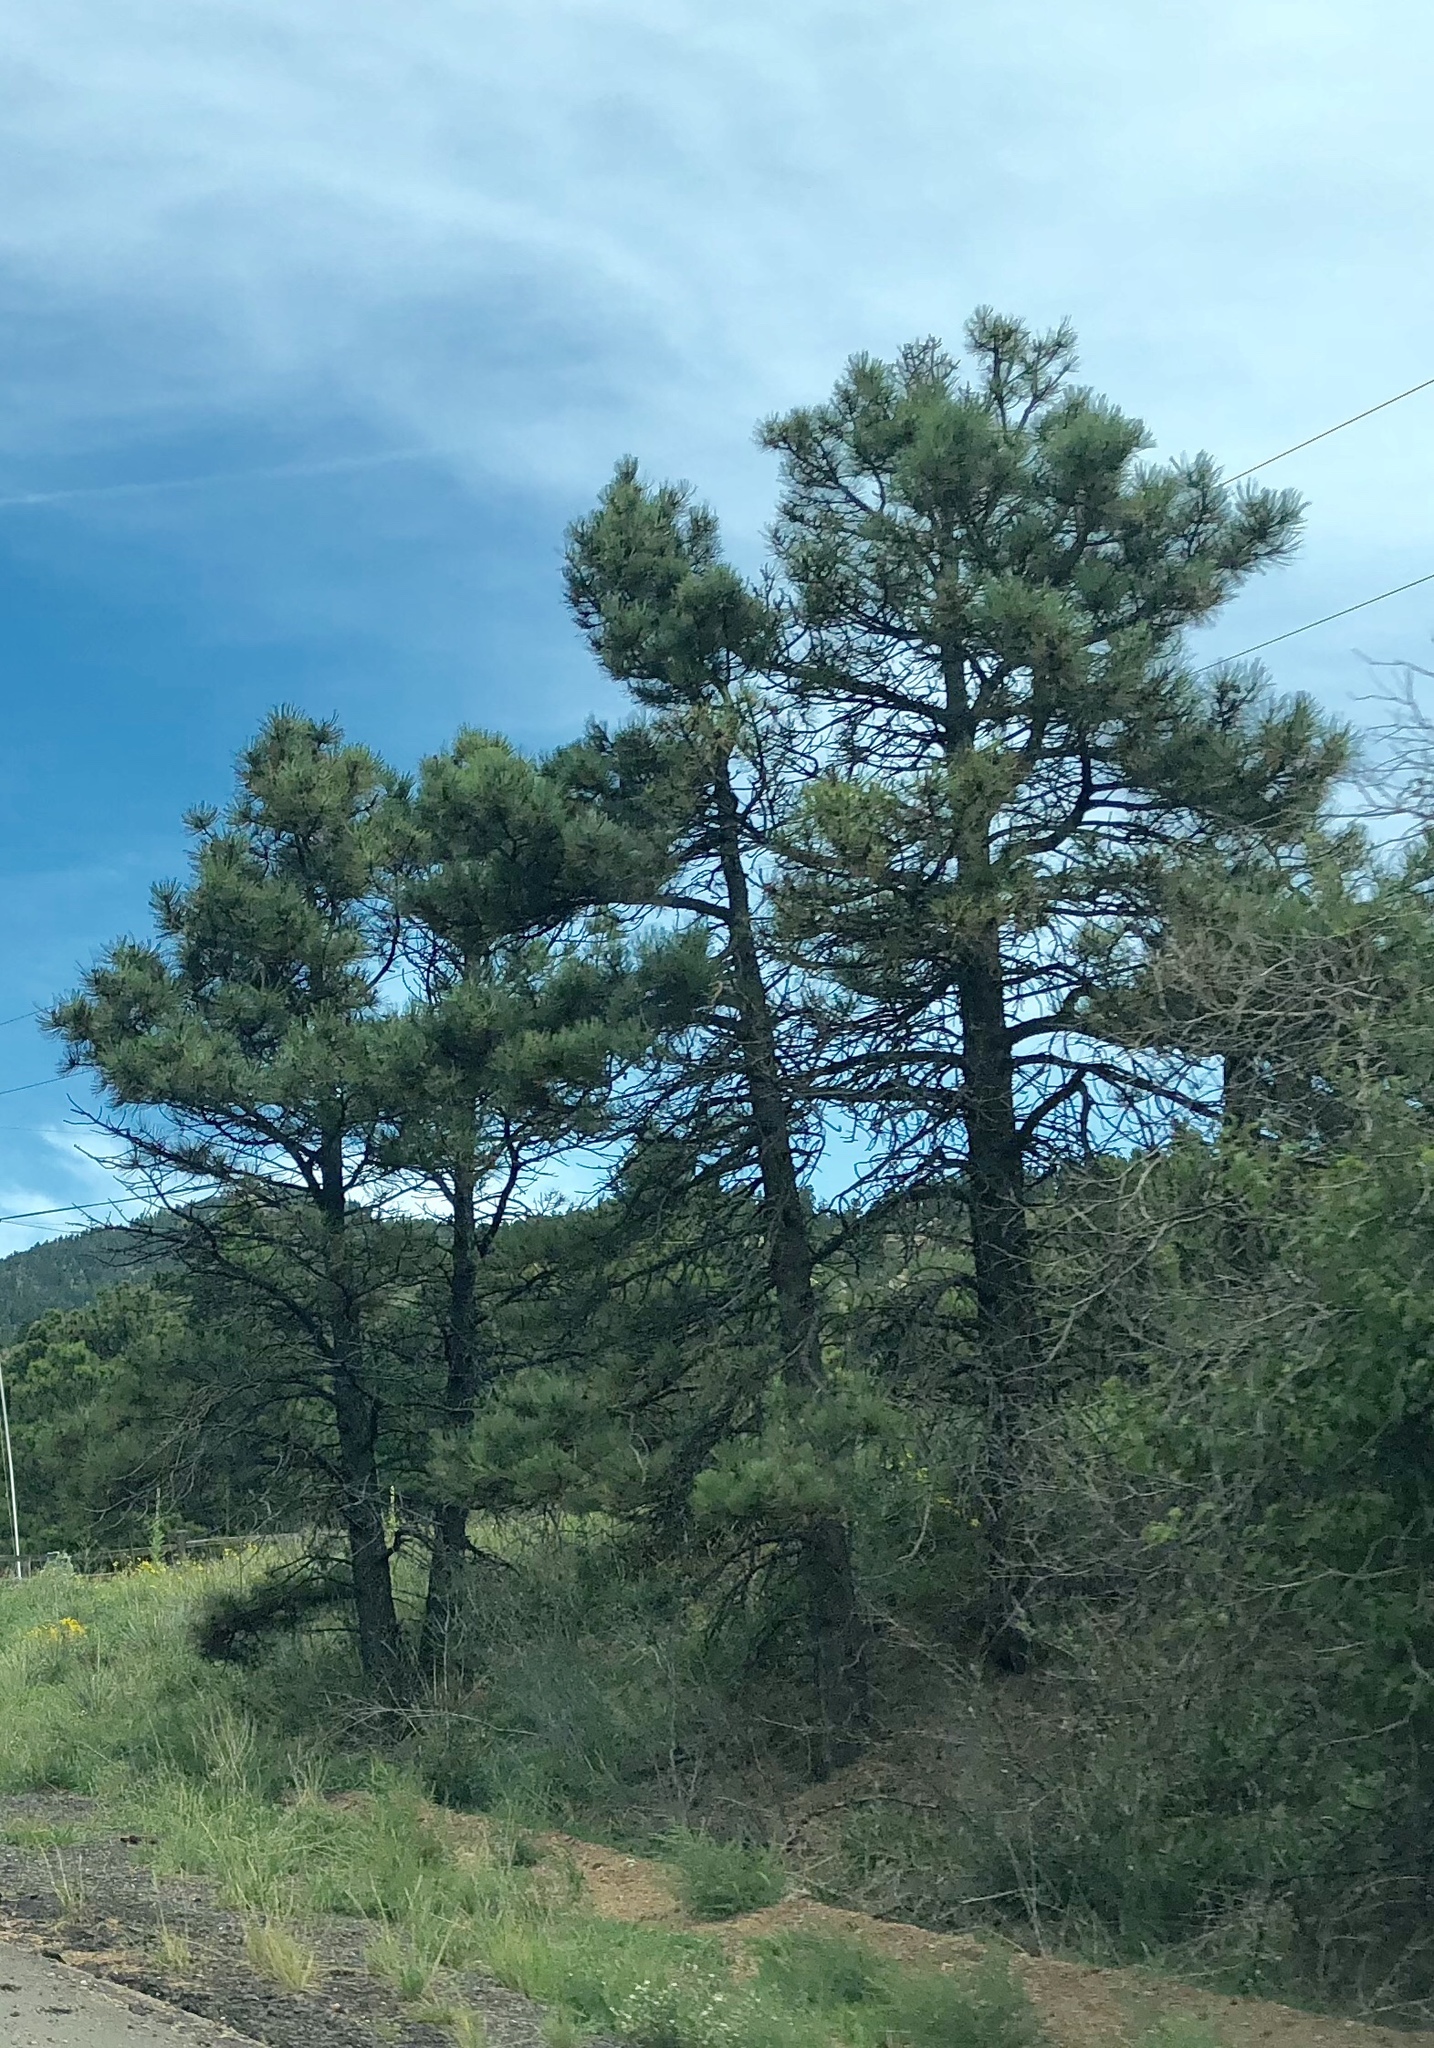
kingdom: Plantae
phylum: Tracheophyta
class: Pinopsida
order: Pinales
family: Pinaceae
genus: Pinus
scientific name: Pinus ponderosa
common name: Western yellow-pine
